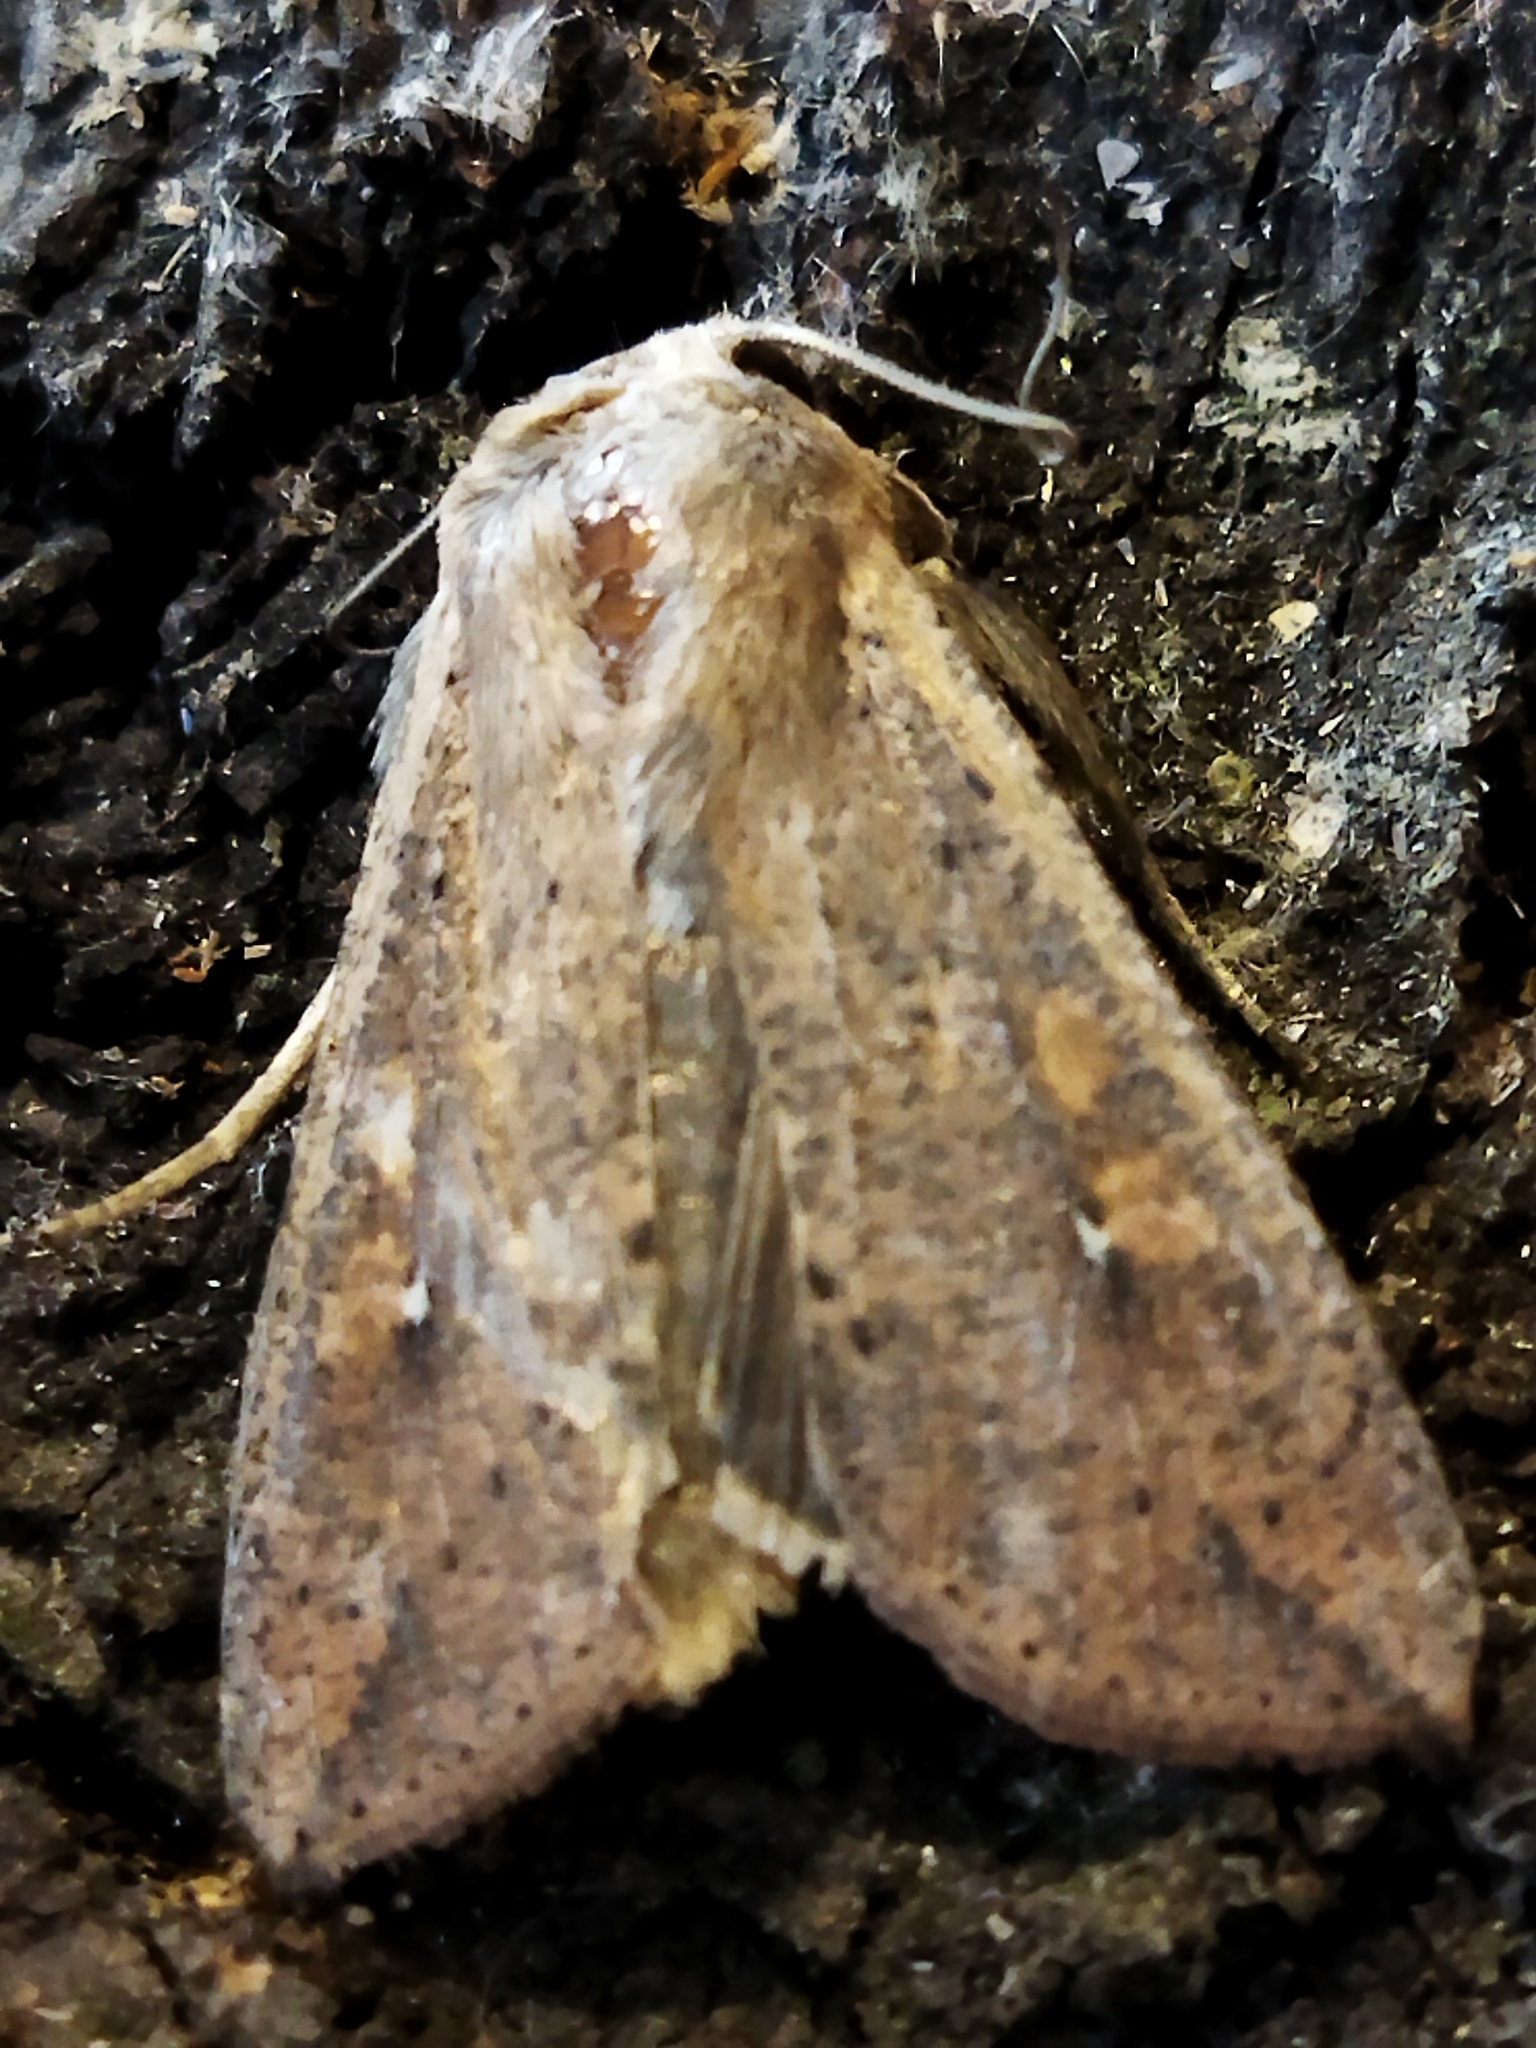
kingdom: Animalia
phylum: Arthropoda
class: Insecta
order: Lepidoptera
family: Noctuidae
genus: Mythimna
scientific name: Mythimna unipuncta
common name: White-speck
